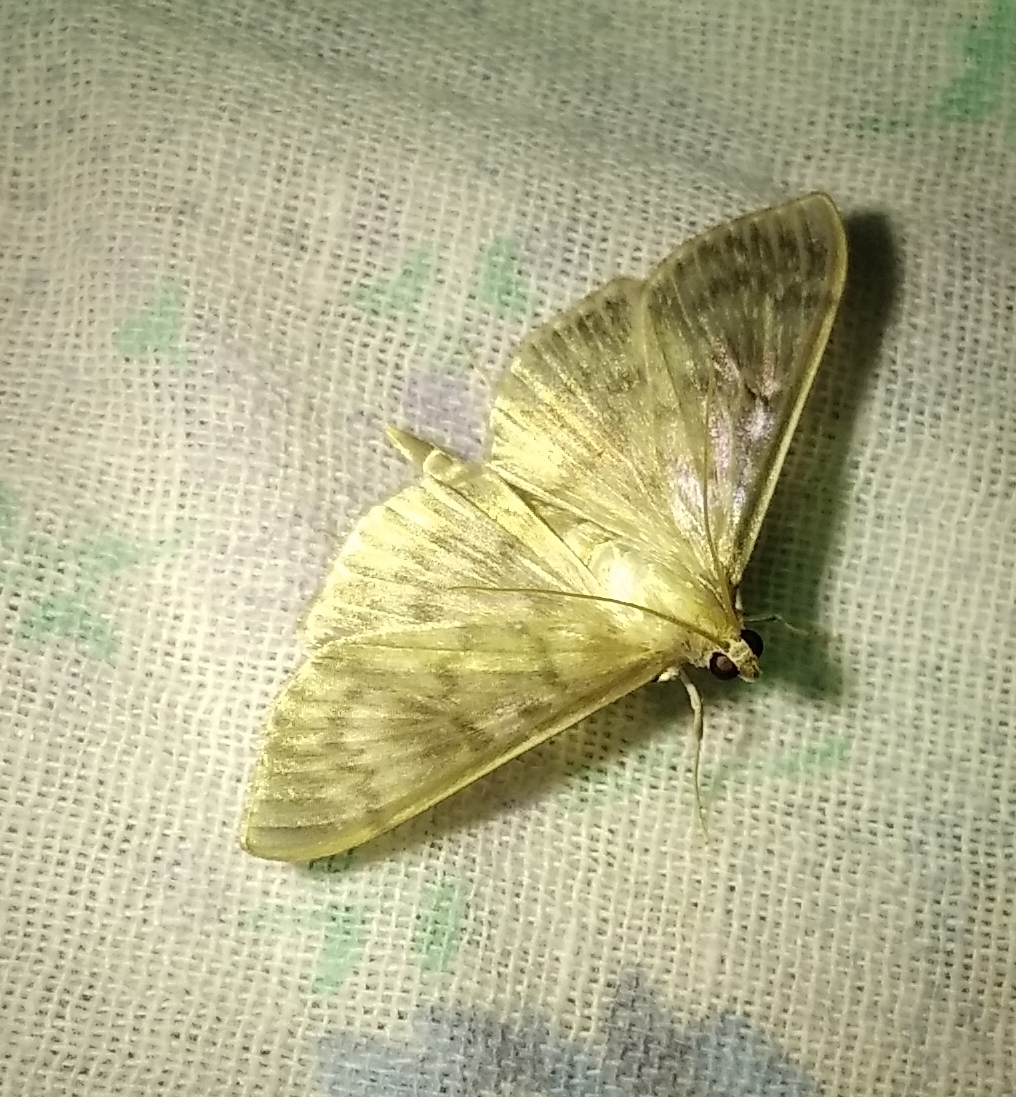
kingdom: Animalia
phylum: Arthropoda
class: Insecta
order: Lepidoptera
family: Crambidae
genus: Patania
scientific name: Patania ruralis
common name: Mother of pearl
